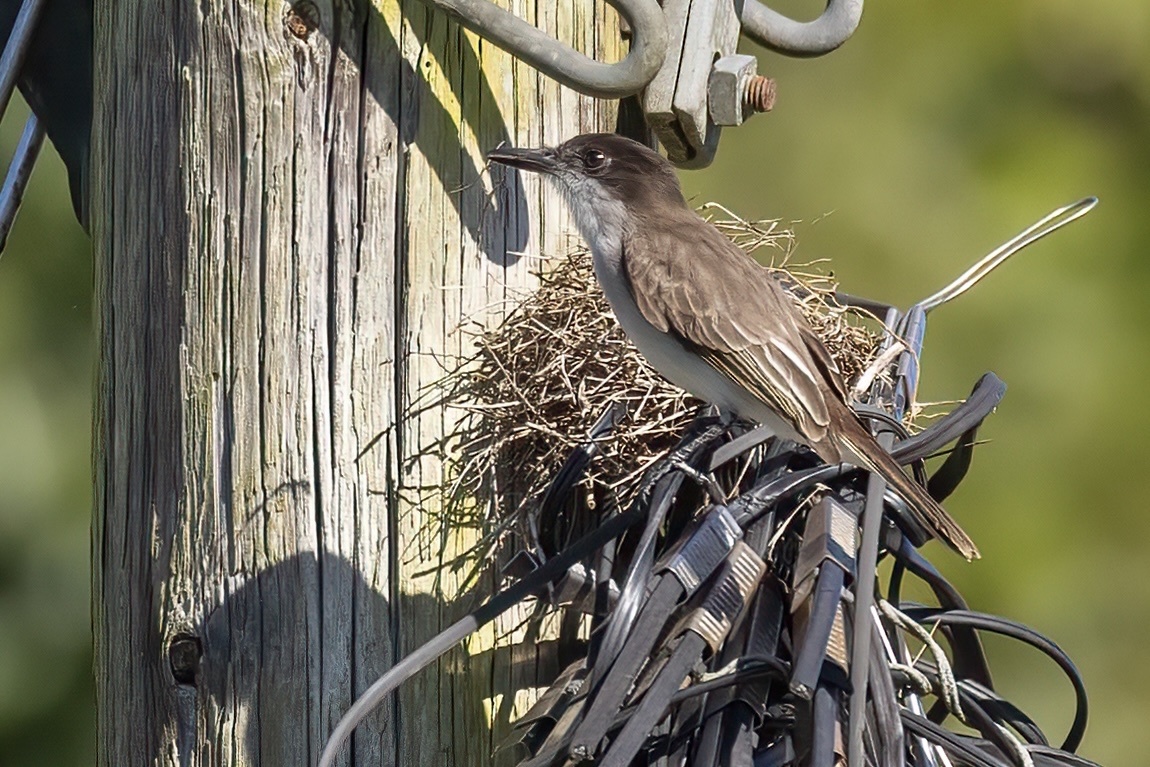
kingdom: Animalia
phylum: Chordata
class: Aves
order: Passeriformes
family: Tyrannidae
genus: Tyrannus
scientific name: Tyrannus caudifasciatus
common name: Loggerhead kingbird
